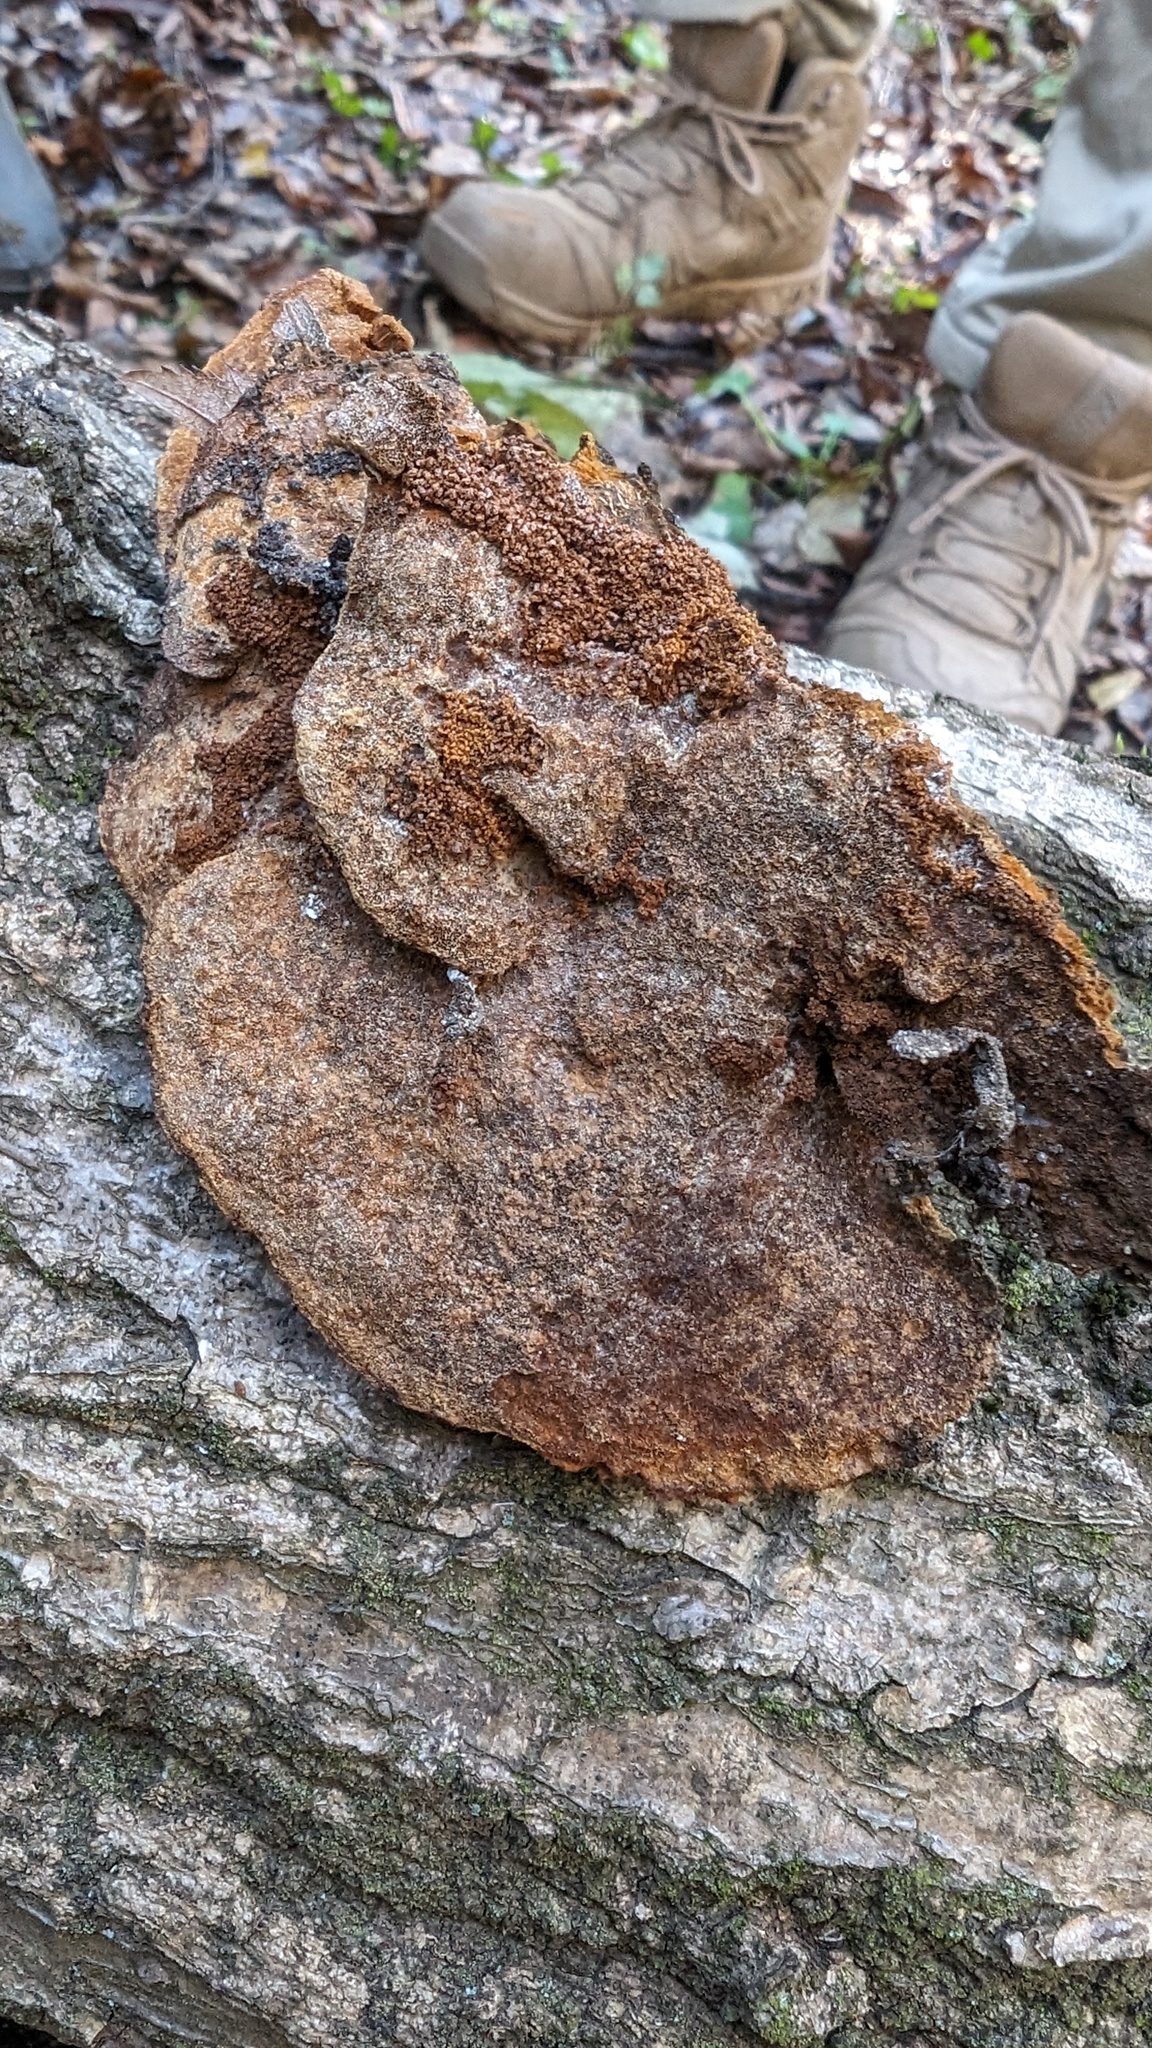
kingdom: Fungi
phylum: Basidiomycota
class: Agaricomycetes
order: Hymenochaetales
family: Hymenochaetaceae
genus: Phellinus
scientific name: Phellinus gilvus
